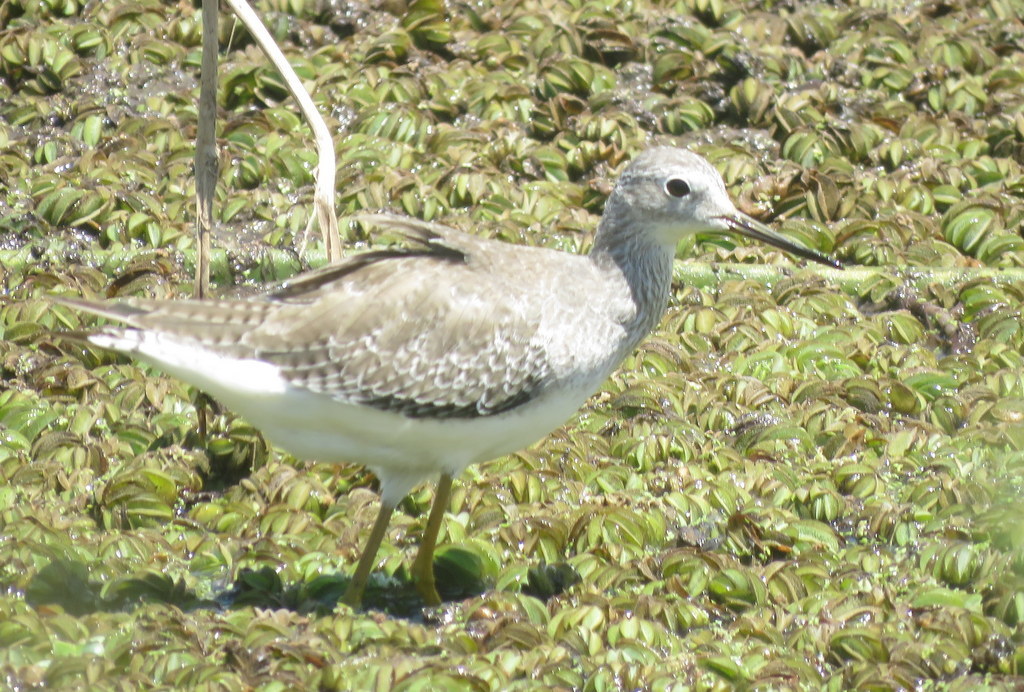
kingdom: Animalia
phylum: Chordata
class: Aves
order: Charadriiformes
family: Scolopacidae
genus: Tringa
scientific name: Tringa flavipes
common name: Lesser yellowlegs
